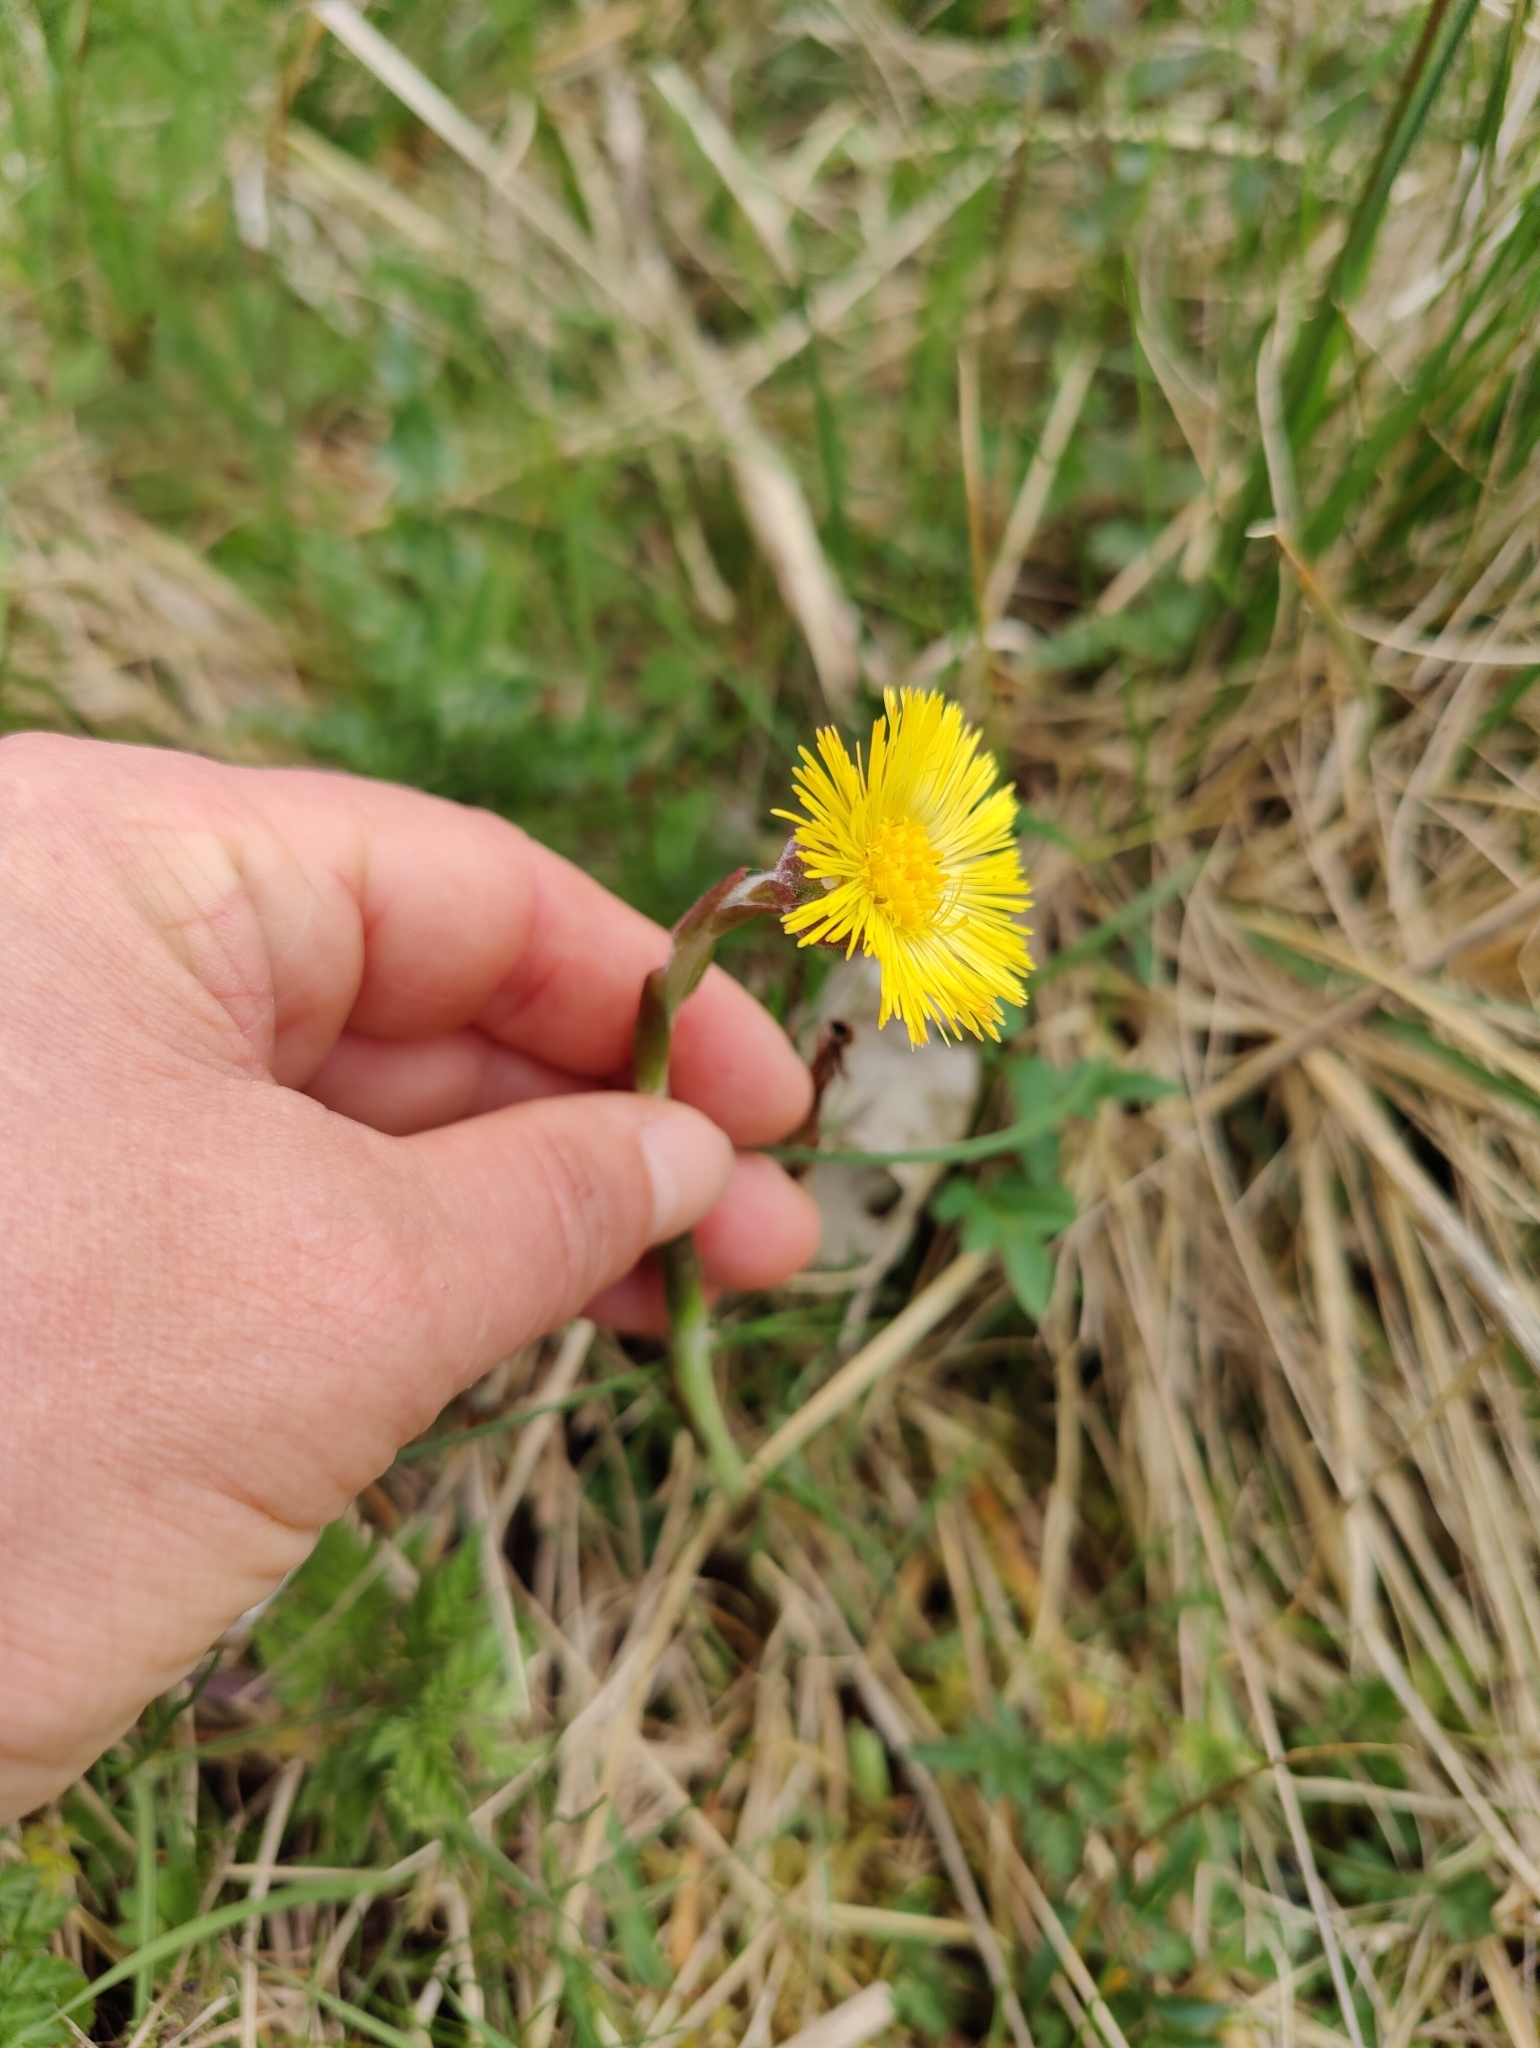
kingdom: Plantae
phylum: Tracheophyta
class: Magnoliopsida
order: Asterales
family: Asteraceae
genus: Tussilago
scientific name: Tussilago farfara
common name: Coltsfoot
